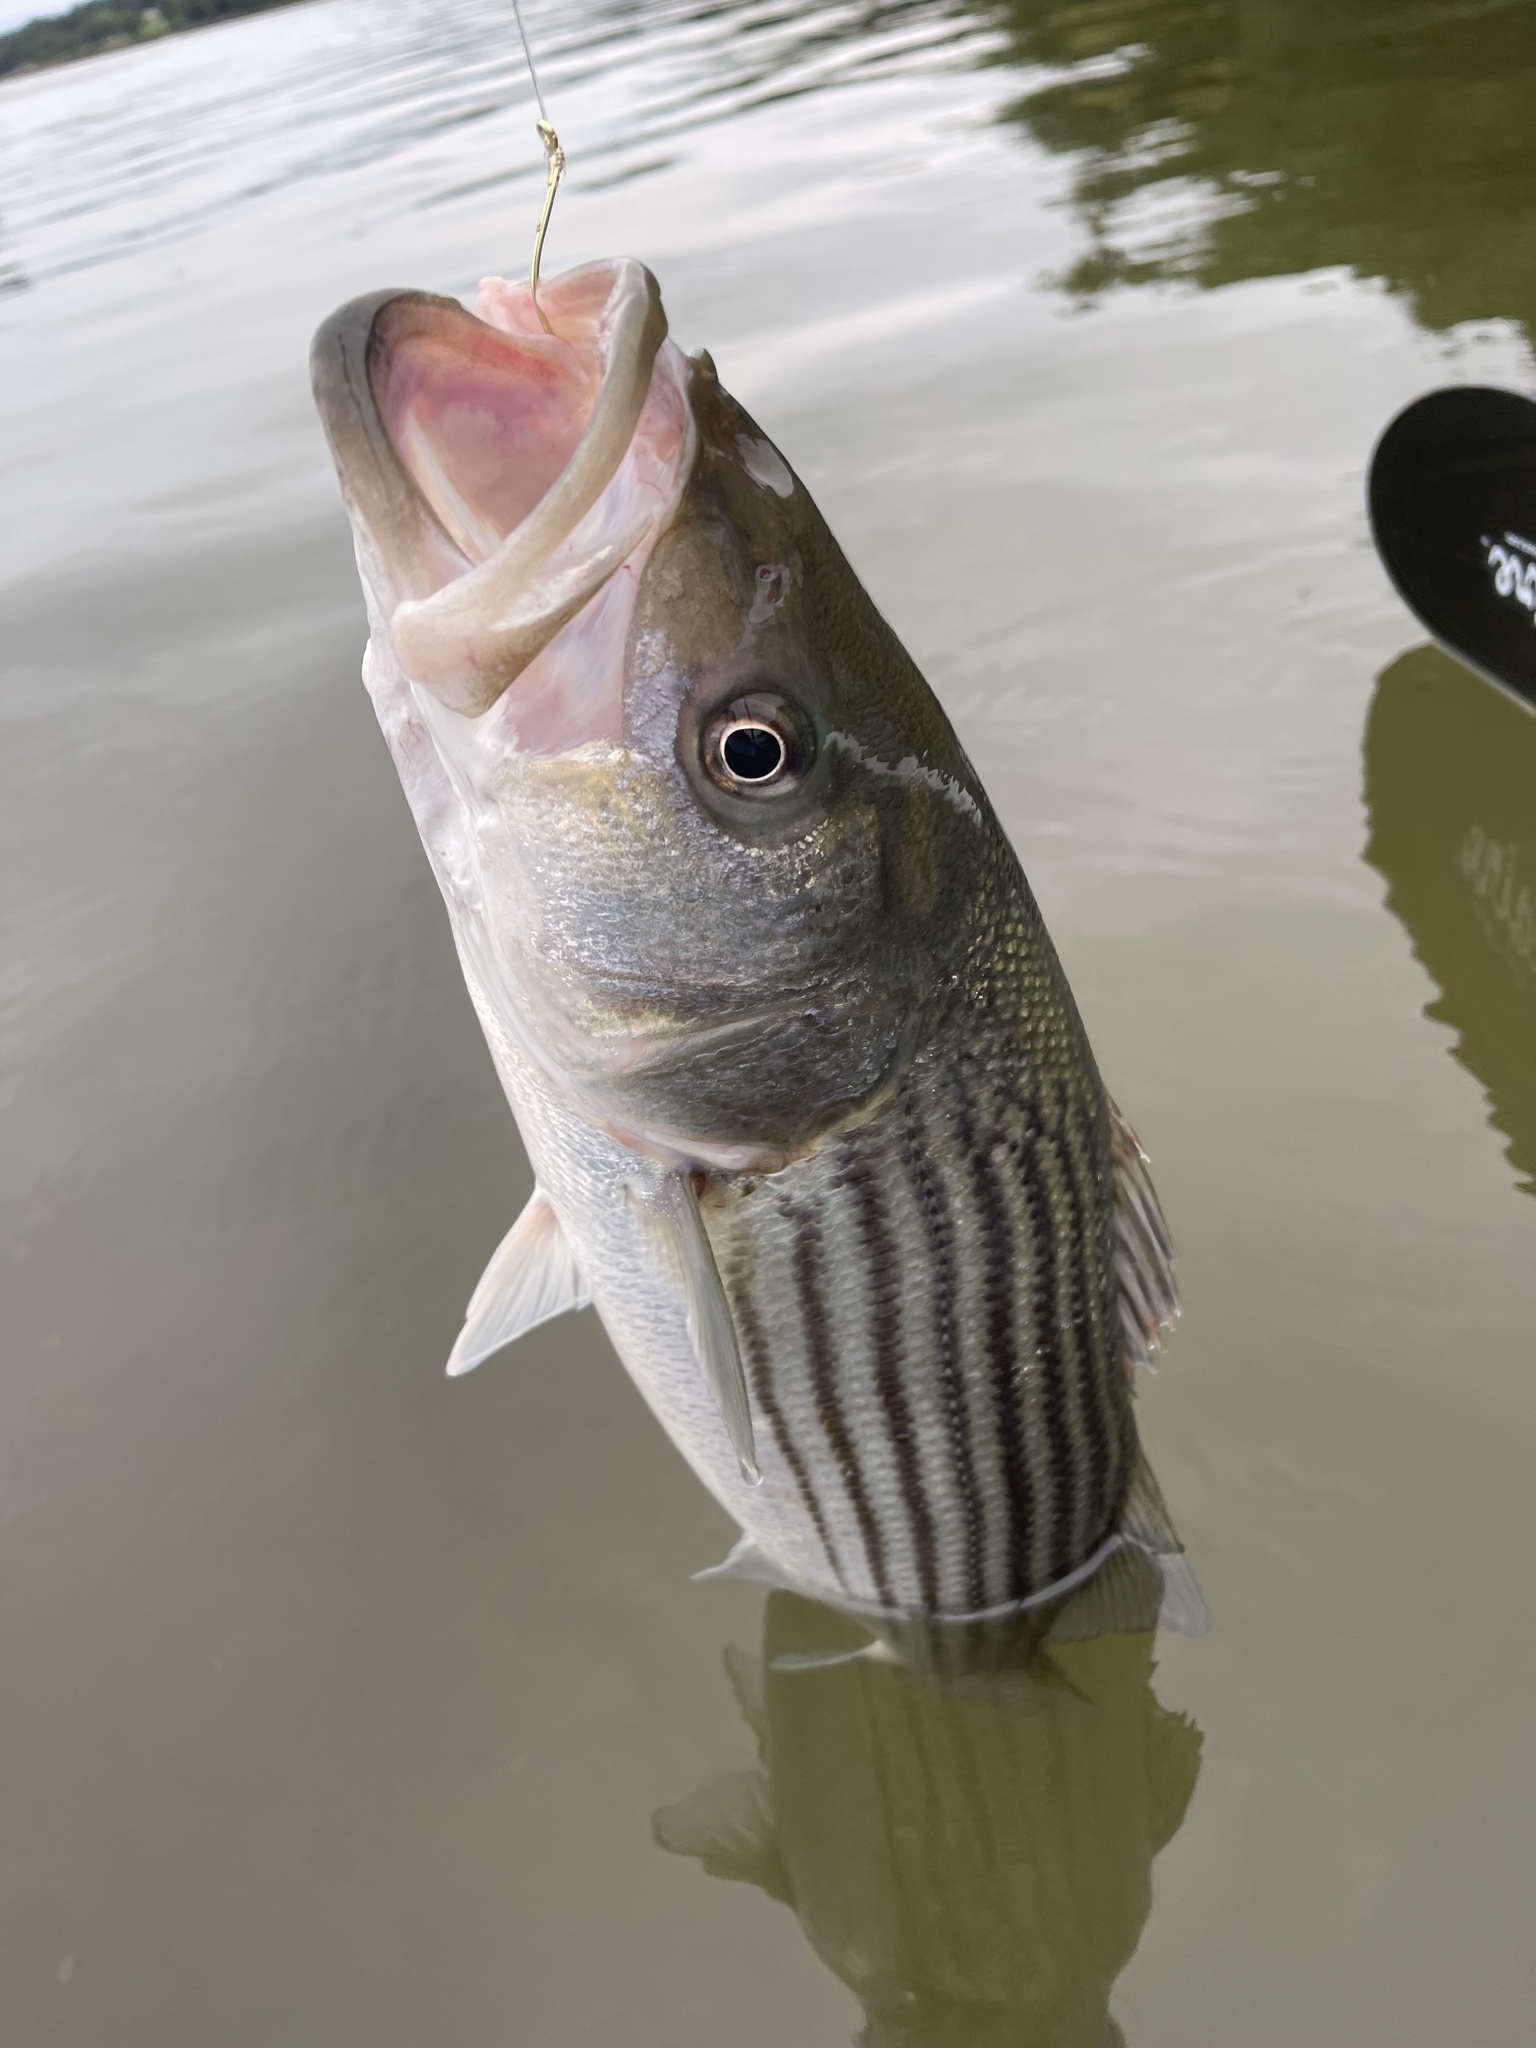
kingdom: Animalia
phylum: Chordata
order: Perciformes
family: Moronidae
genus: Morone
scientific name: Morone saxatilis
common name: Striped bass
